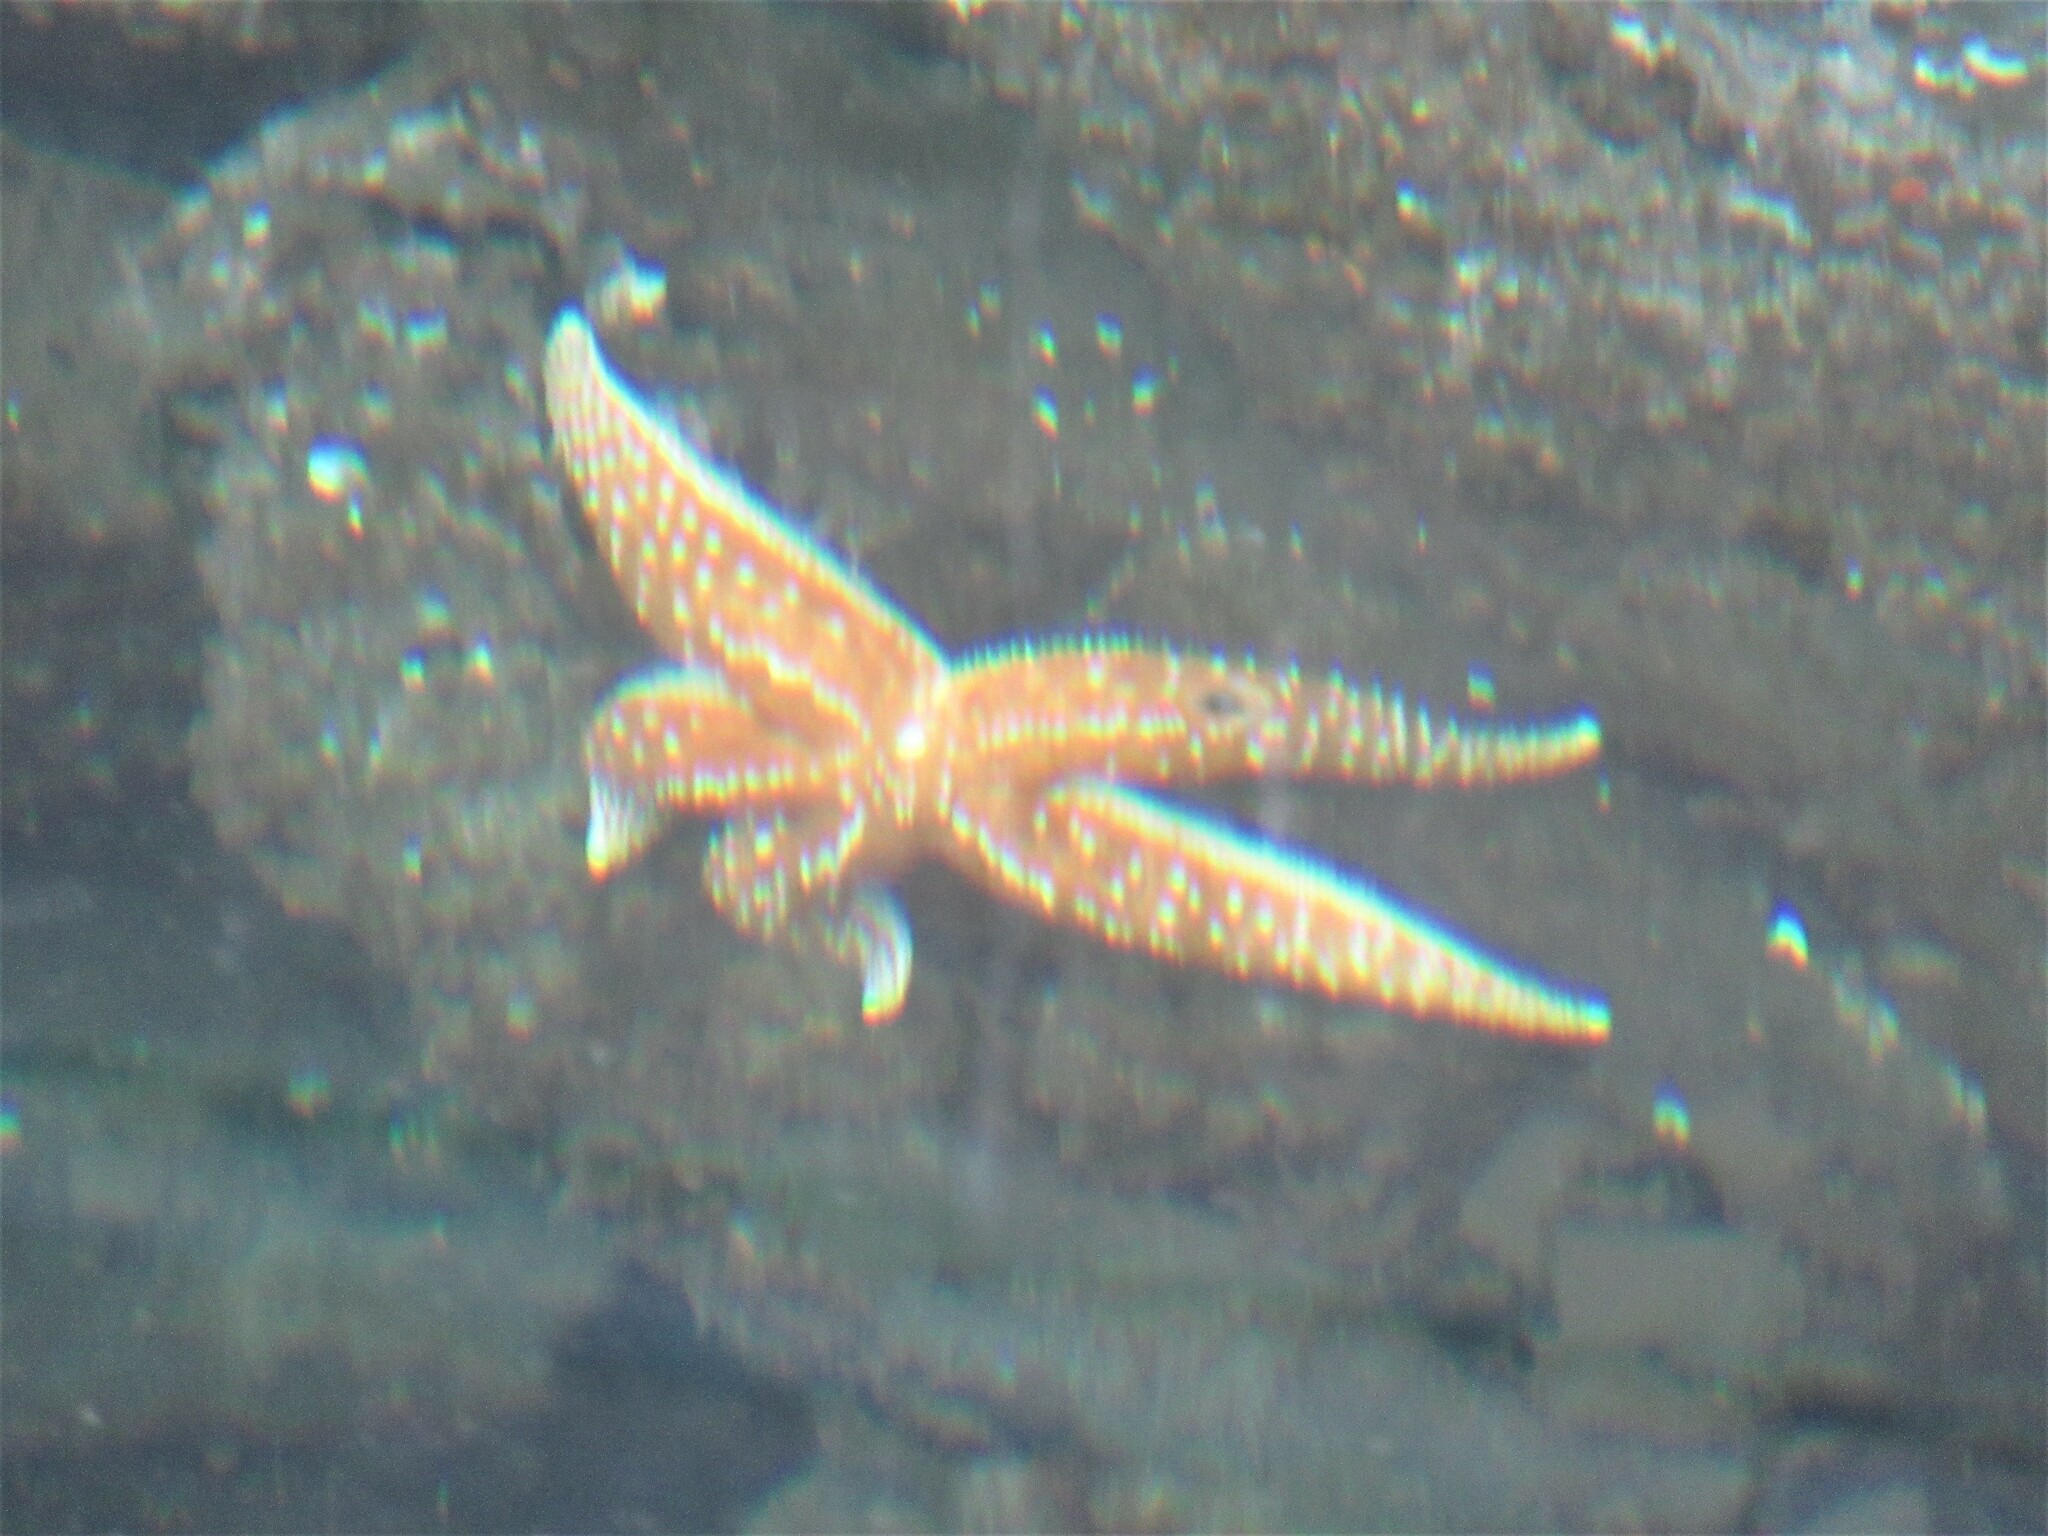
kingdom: Animalia
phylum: Echinodermata
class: Asteroidea
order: Forcipulatida
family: Asteriidae
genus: Evasterias
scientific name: Evasterias troschelii
